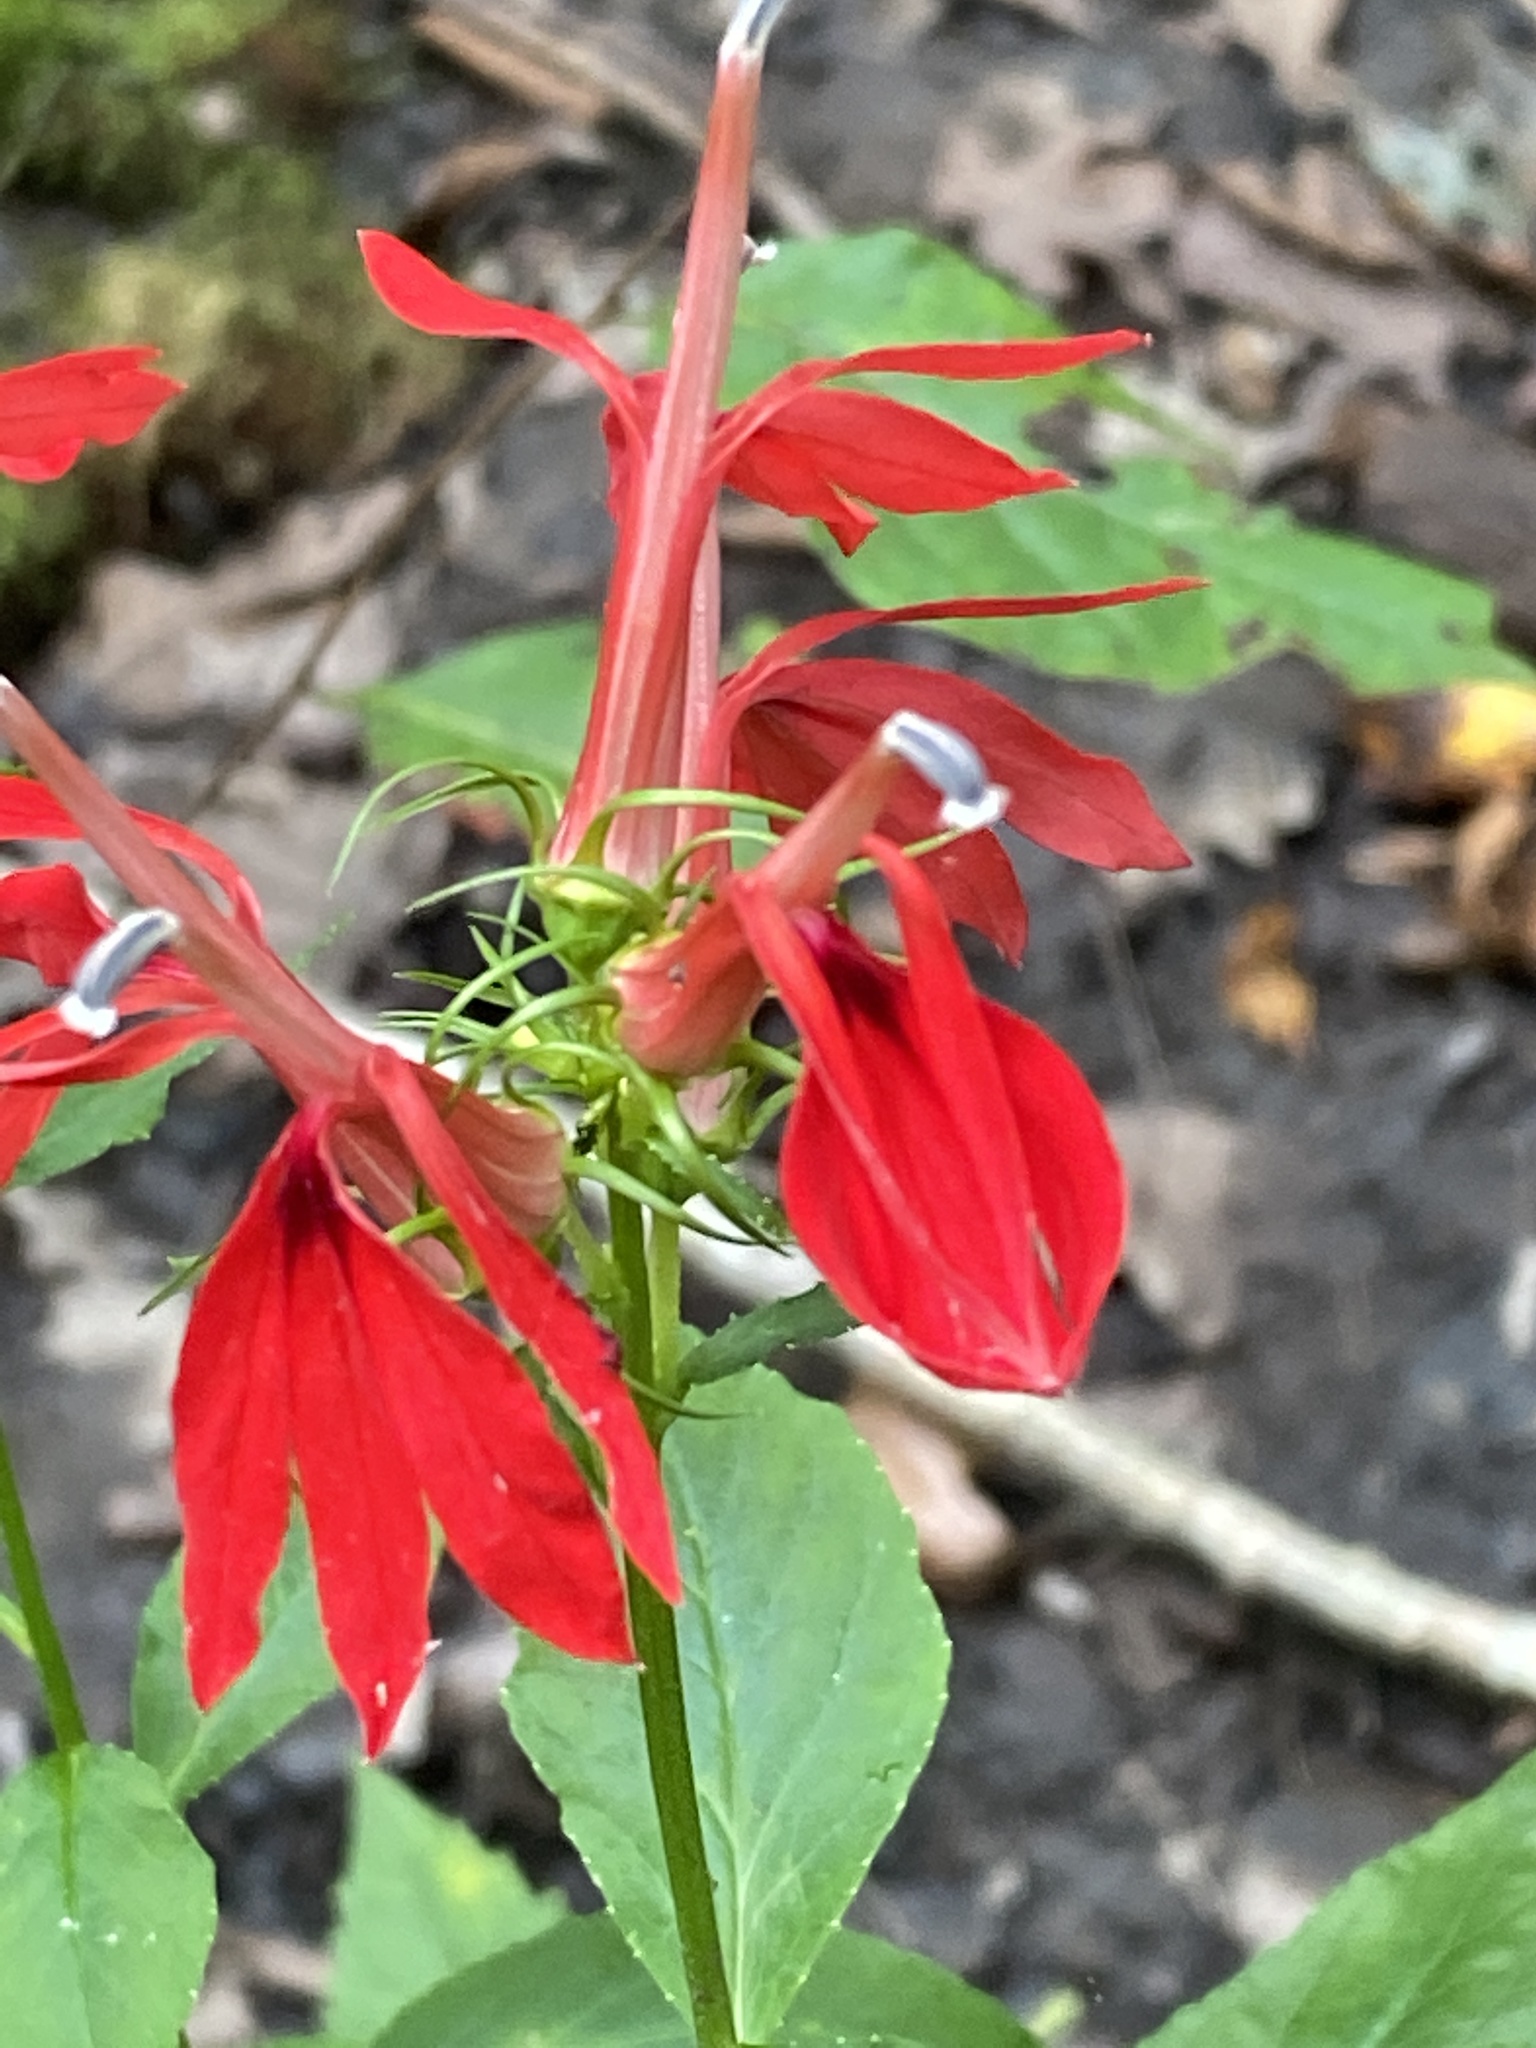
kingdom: Plantae
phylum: Tracheophyta
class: Magnoliopsida
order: Asterales
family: Campanulaceae
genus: Lobelia
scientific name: Lobelia cardinalis
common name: Cardinal flower
